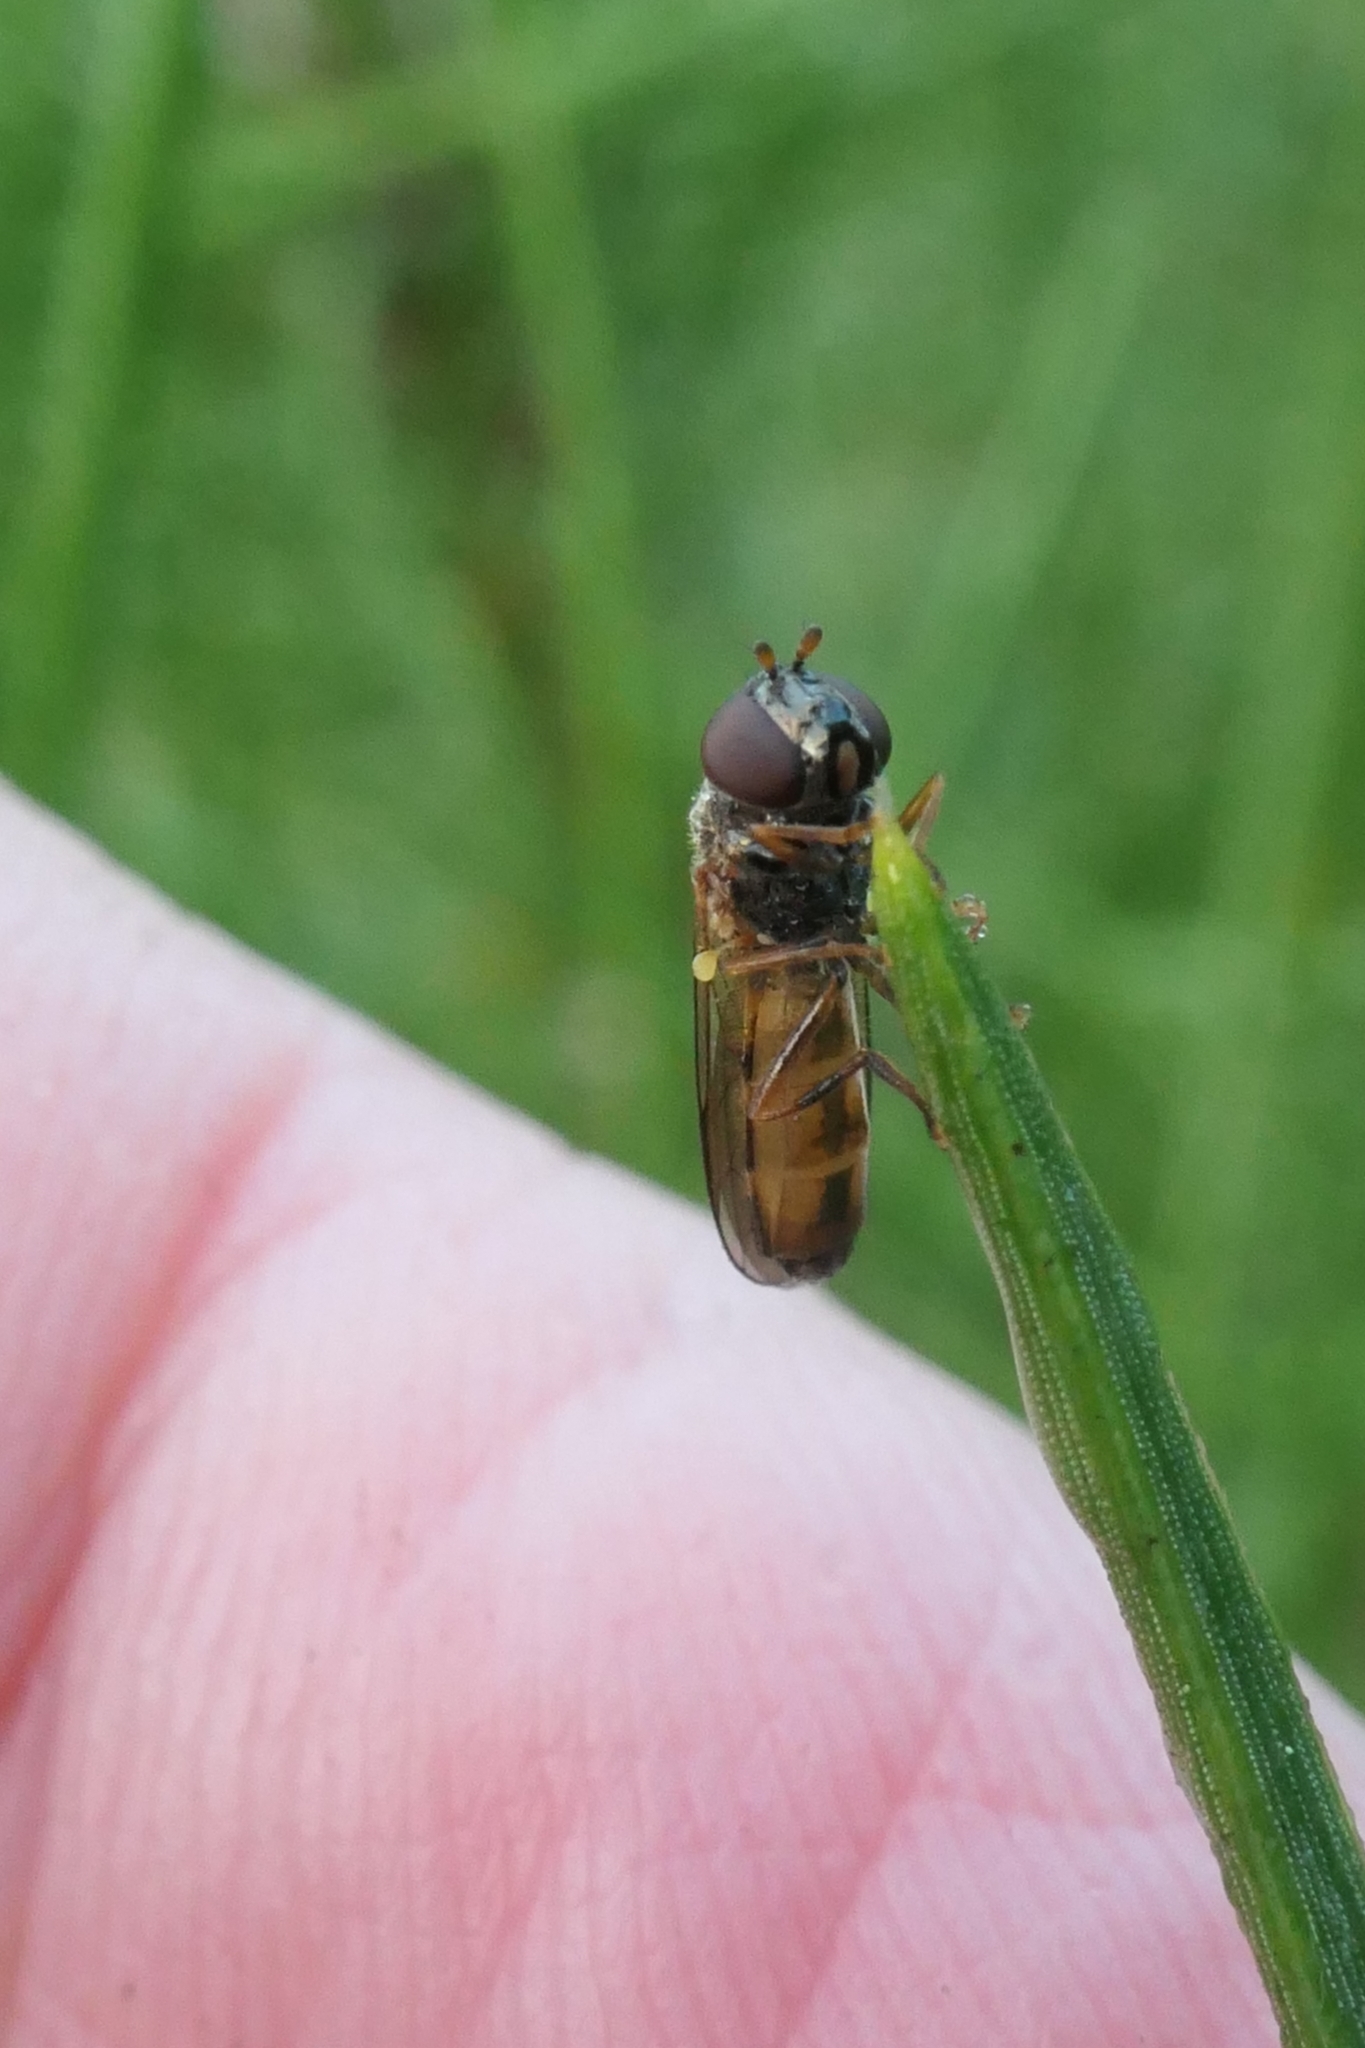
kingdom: Animalia
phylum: Arthropoda
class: Insecta
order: Diptera
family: Syrphidae
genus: Melanostoma
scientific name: Melanostoma fasciatum
